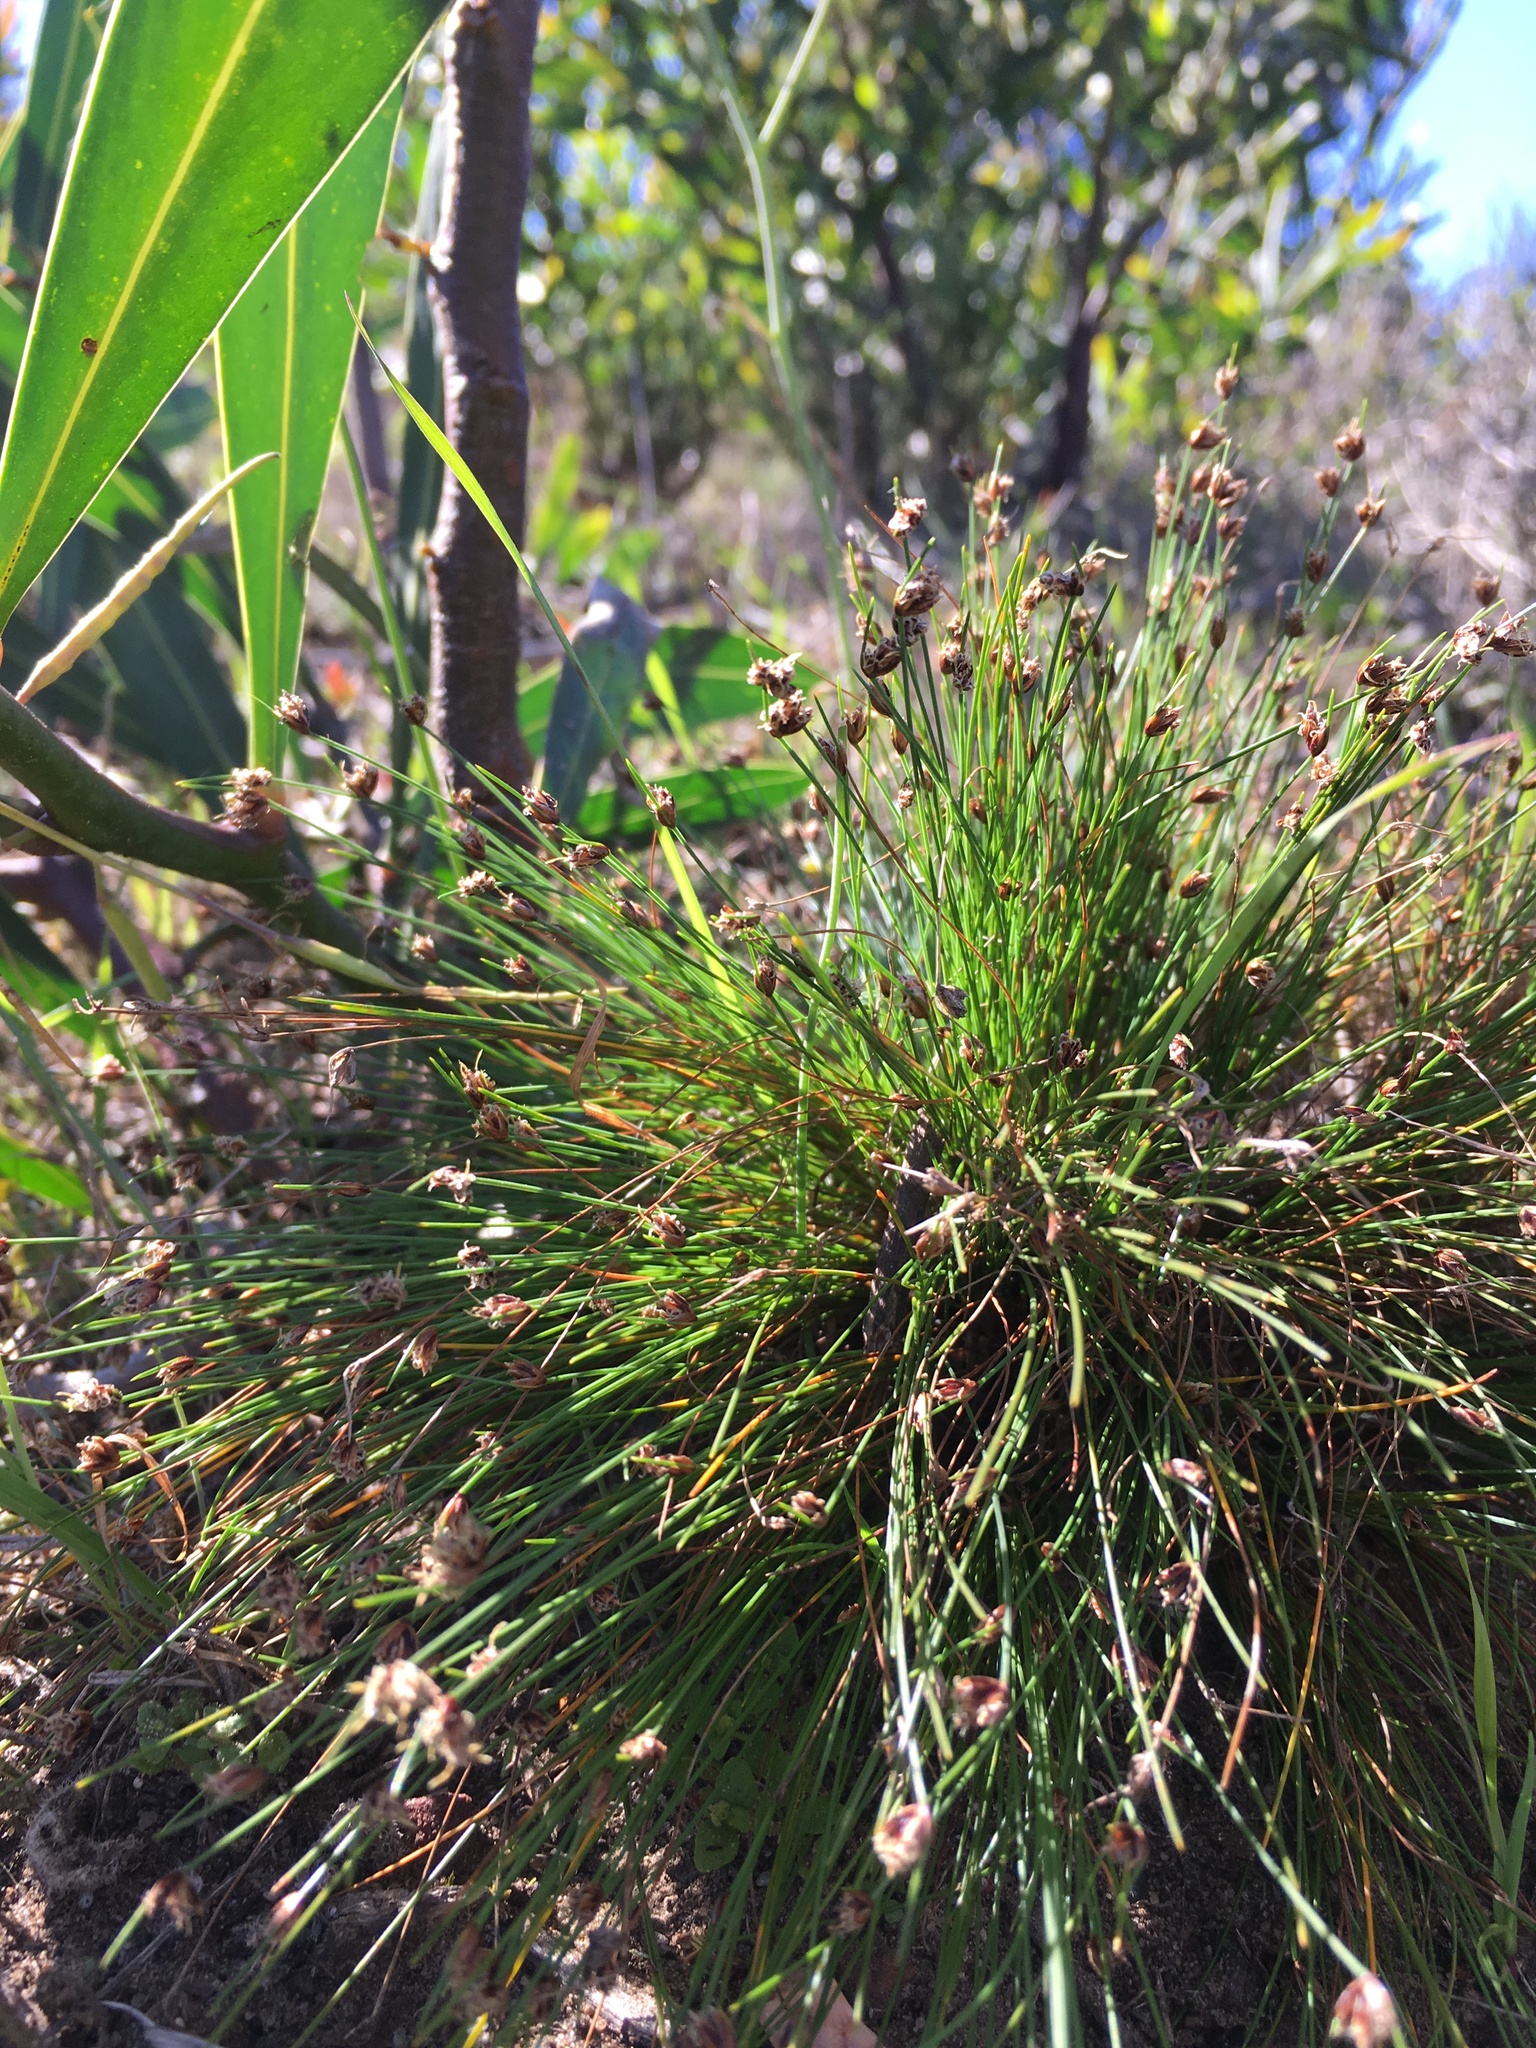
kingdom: Plantae
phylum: Tracheophyta
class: Liliopsida
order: Poales
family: Cyperaceae
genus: Ficinia
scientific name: Ficinia oligantha
